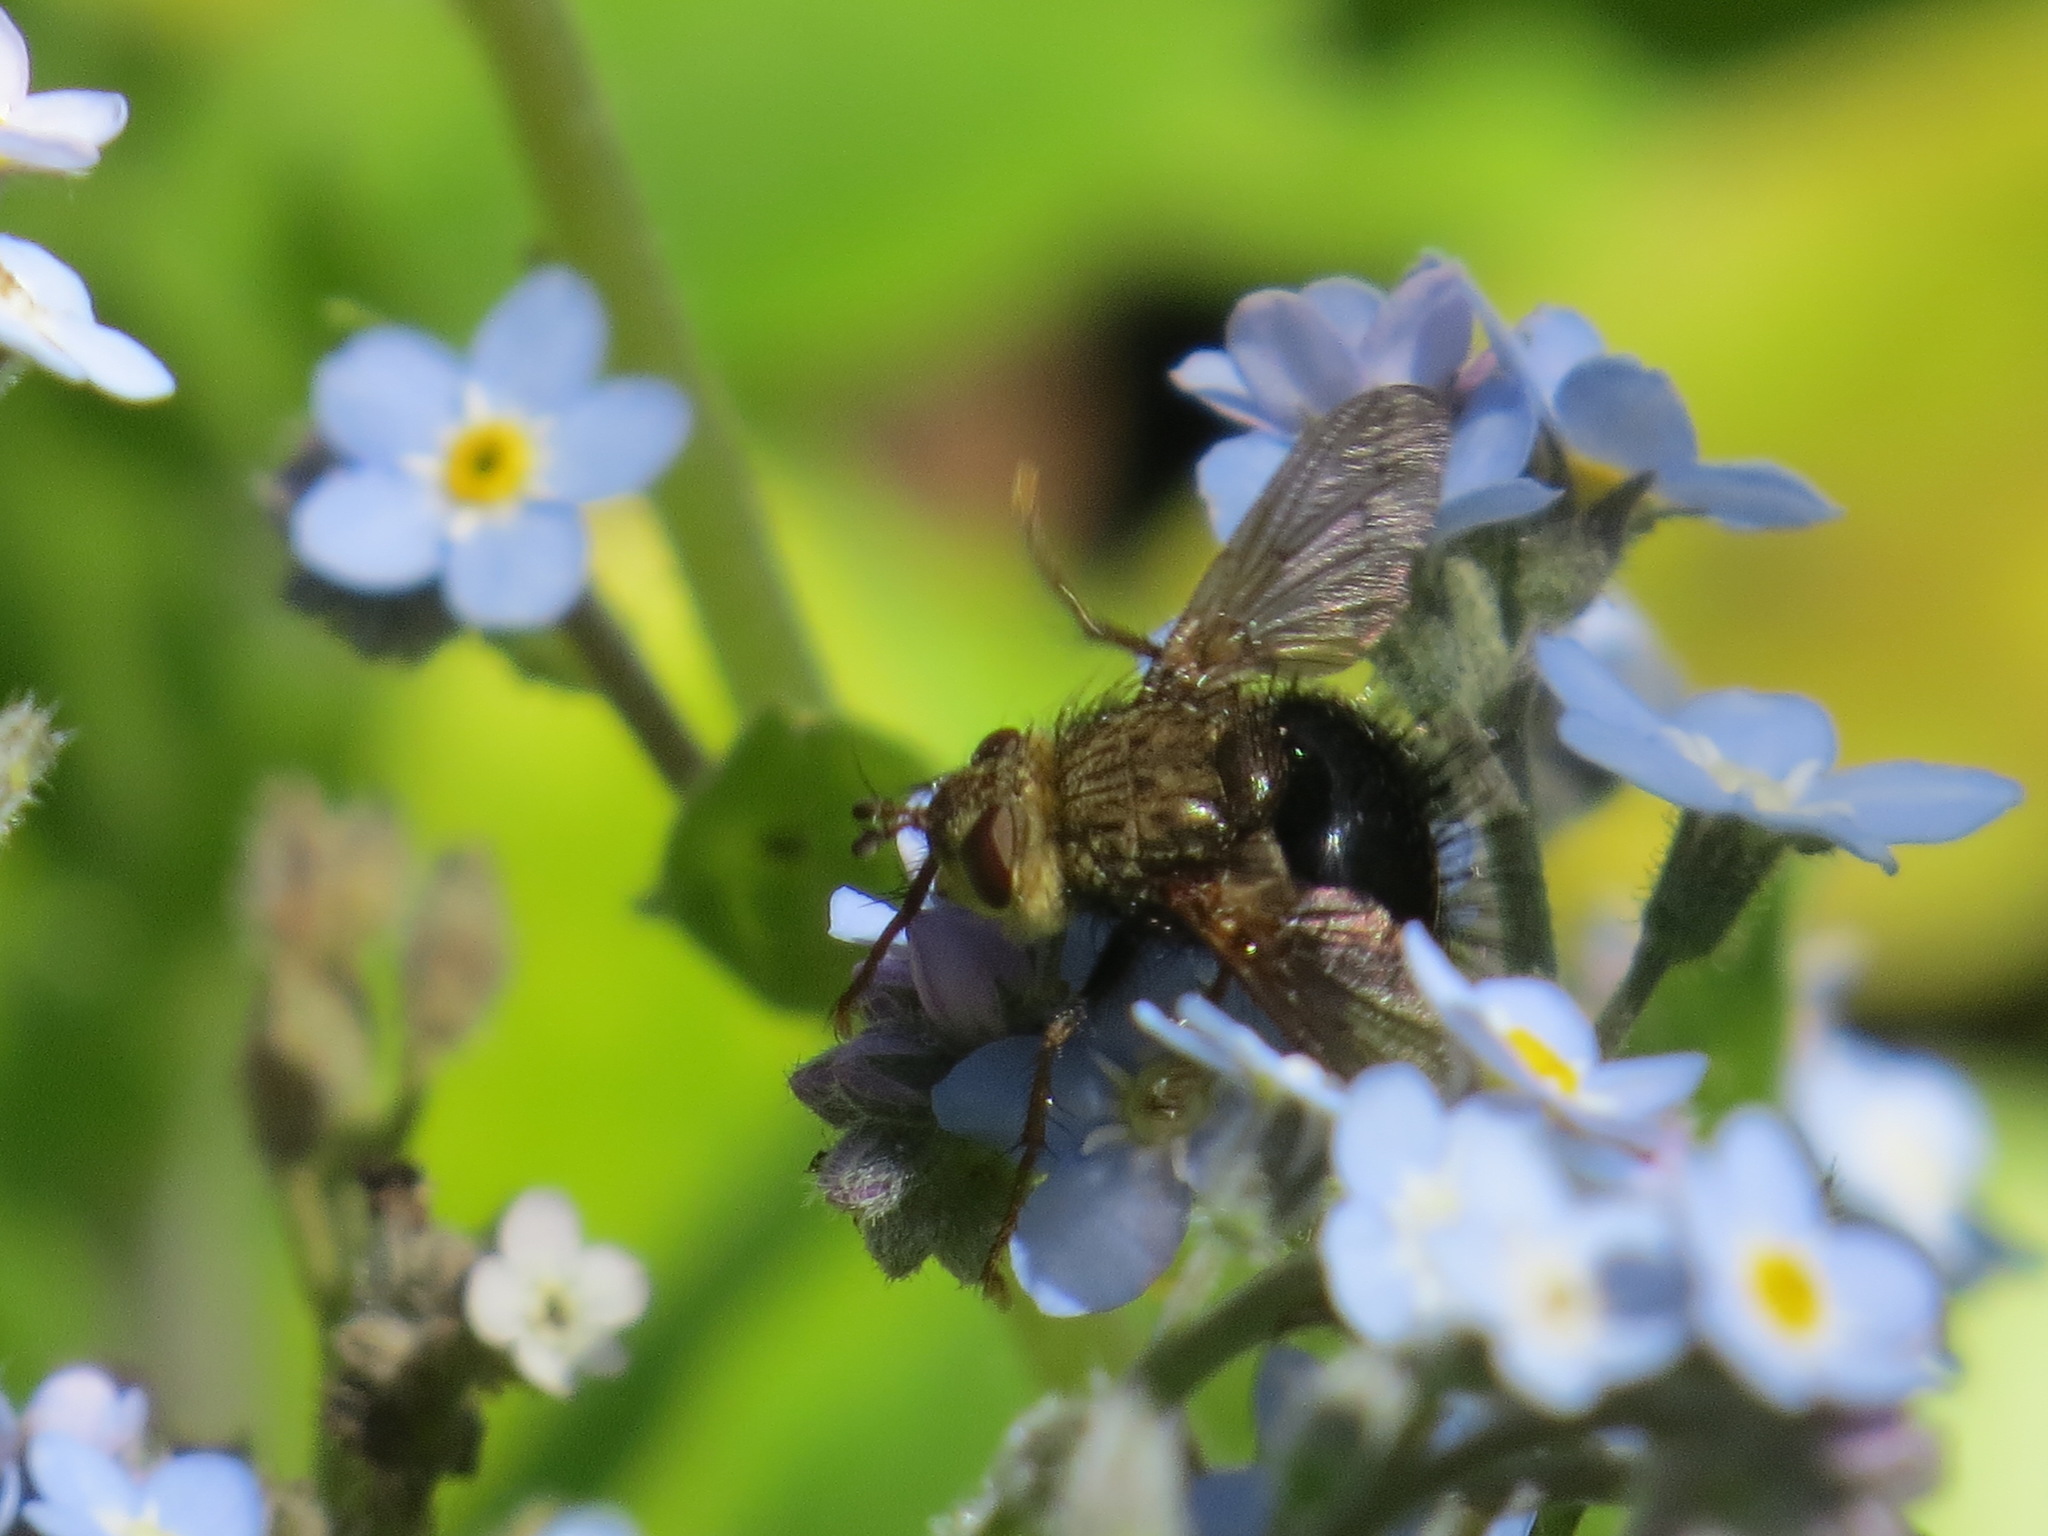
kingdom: Animalia
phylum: Arthropoda
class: Insecta
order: Diptera
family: Tachinidae
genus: Epalpus
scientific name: Epalpus signifer
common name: Early tachinid fly
